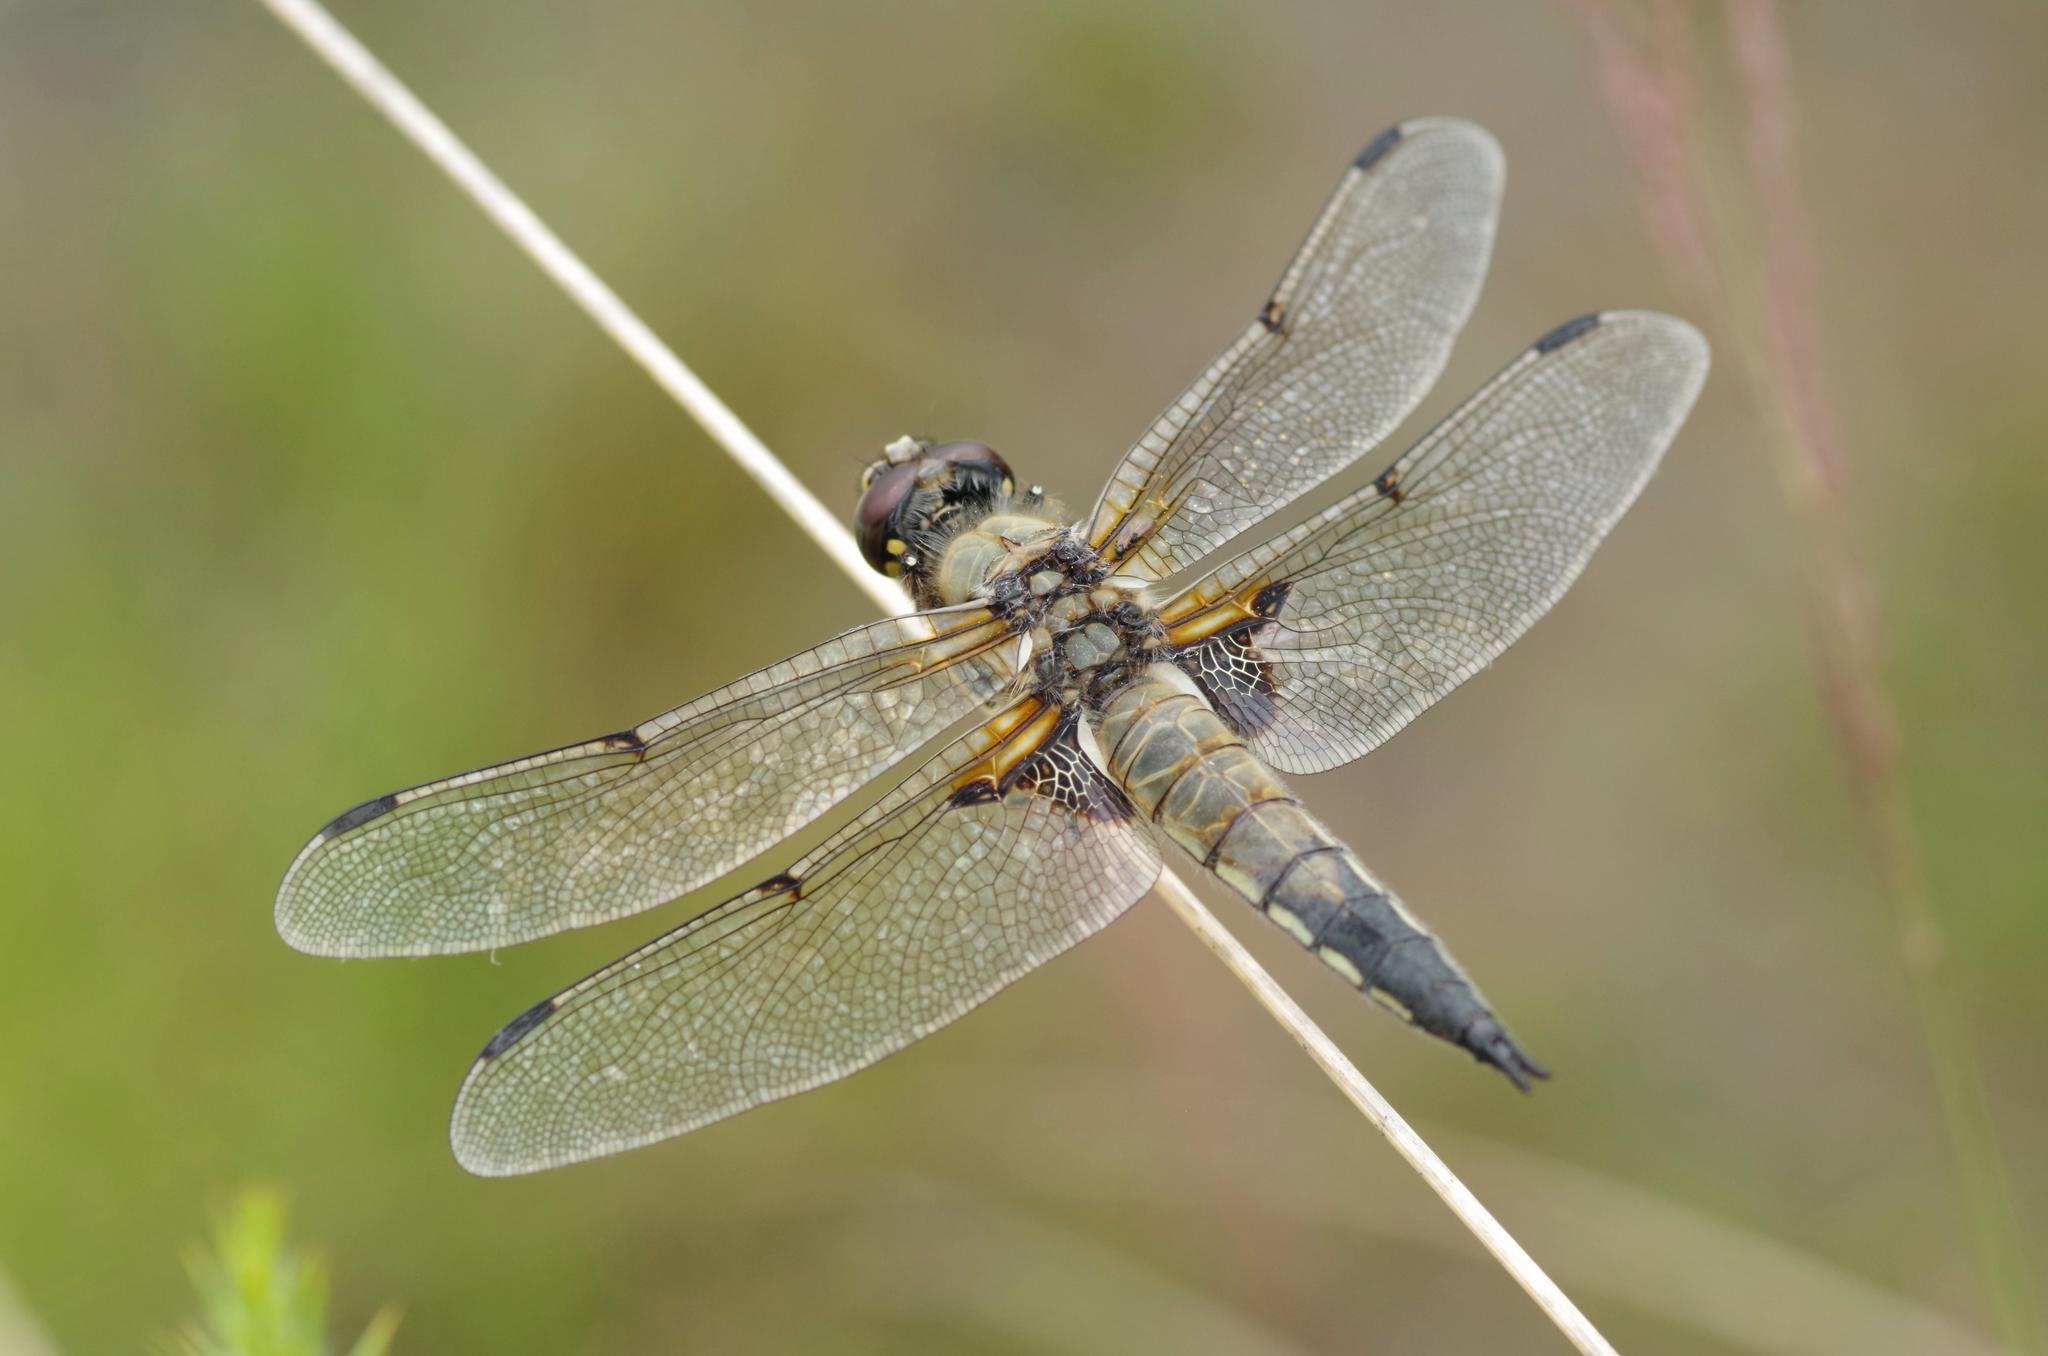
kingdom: Animalia
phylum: Arthropoda
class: Insecta
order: Odonata
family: Libellulidae
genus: Libellula
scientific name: Libellula quadrimaculata
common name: Four-spotted chaser
